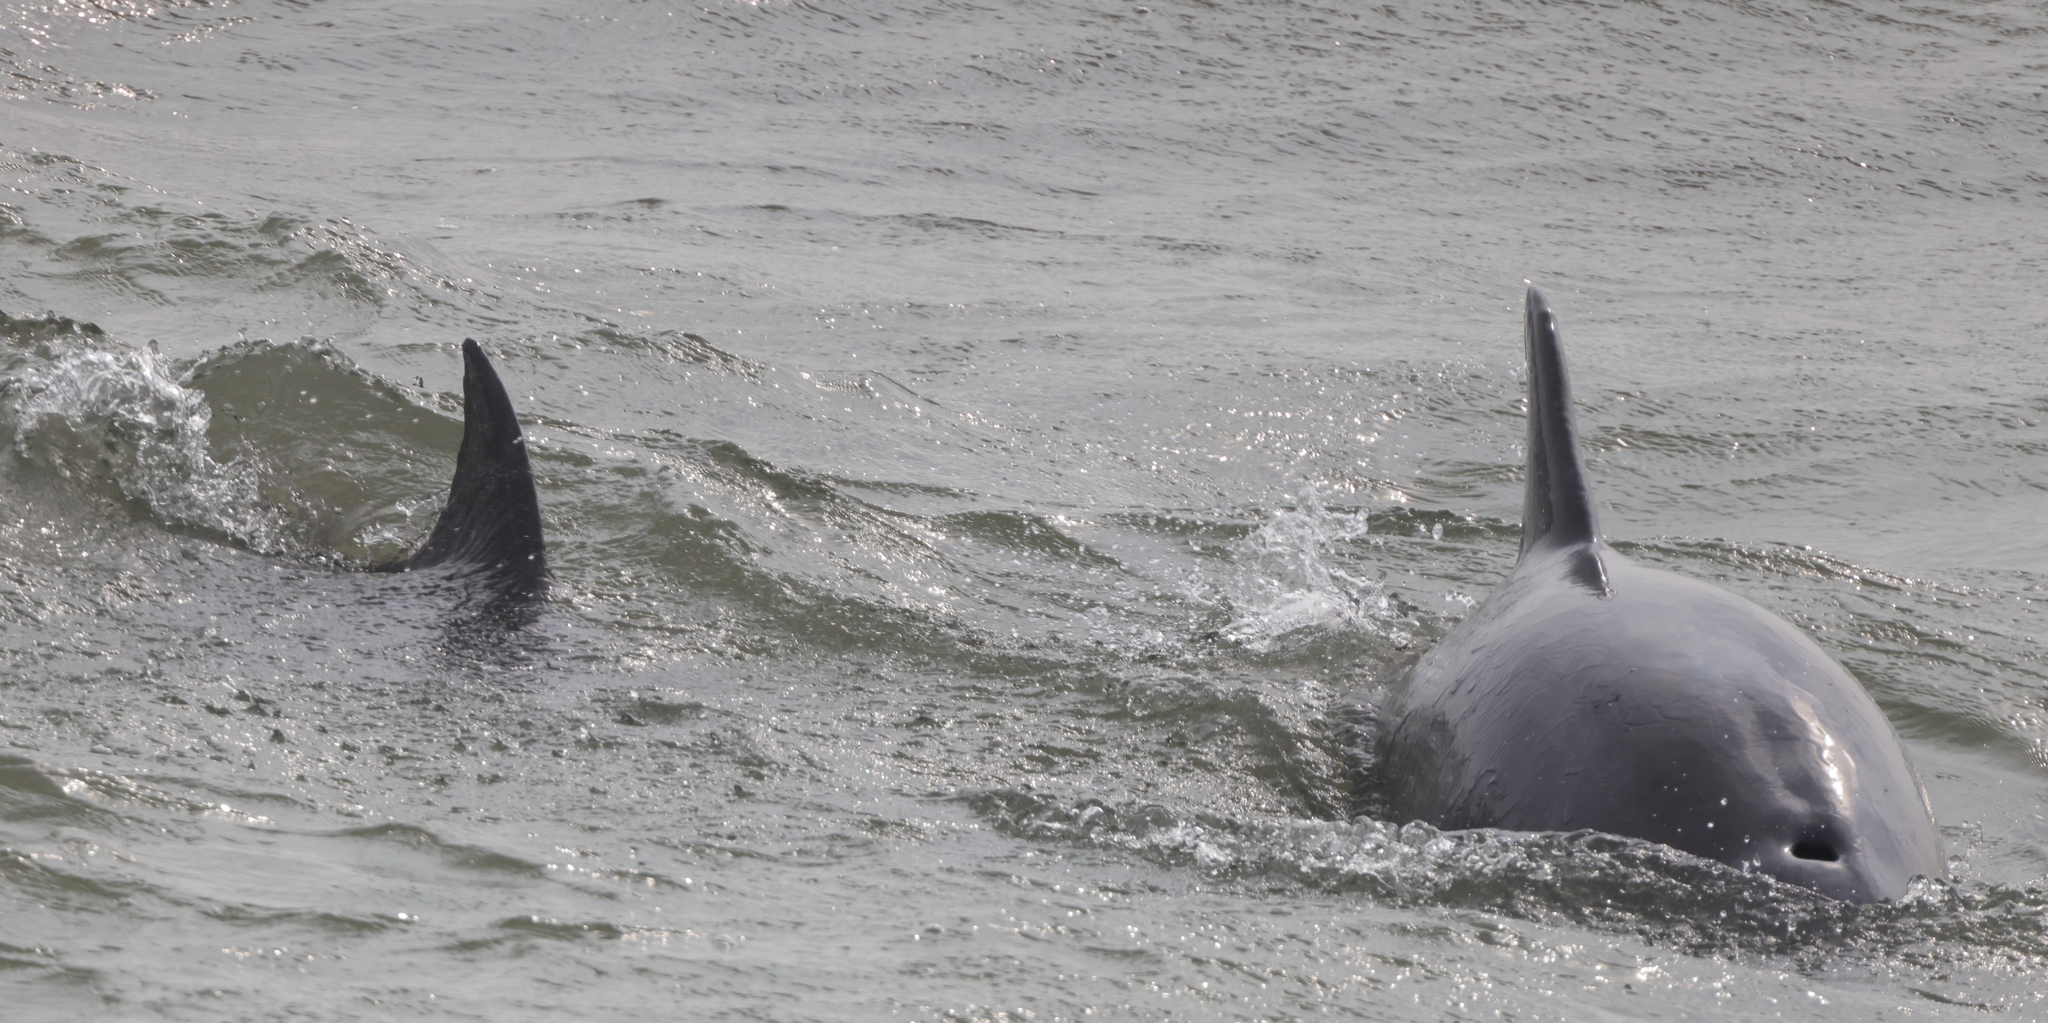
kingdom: Animalia
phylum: Chordata
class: Mammalia
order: Cetacea
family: Delphinidae
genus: Tursiops
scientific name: Tursiops truncatus
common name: Bottlenose dolphin
